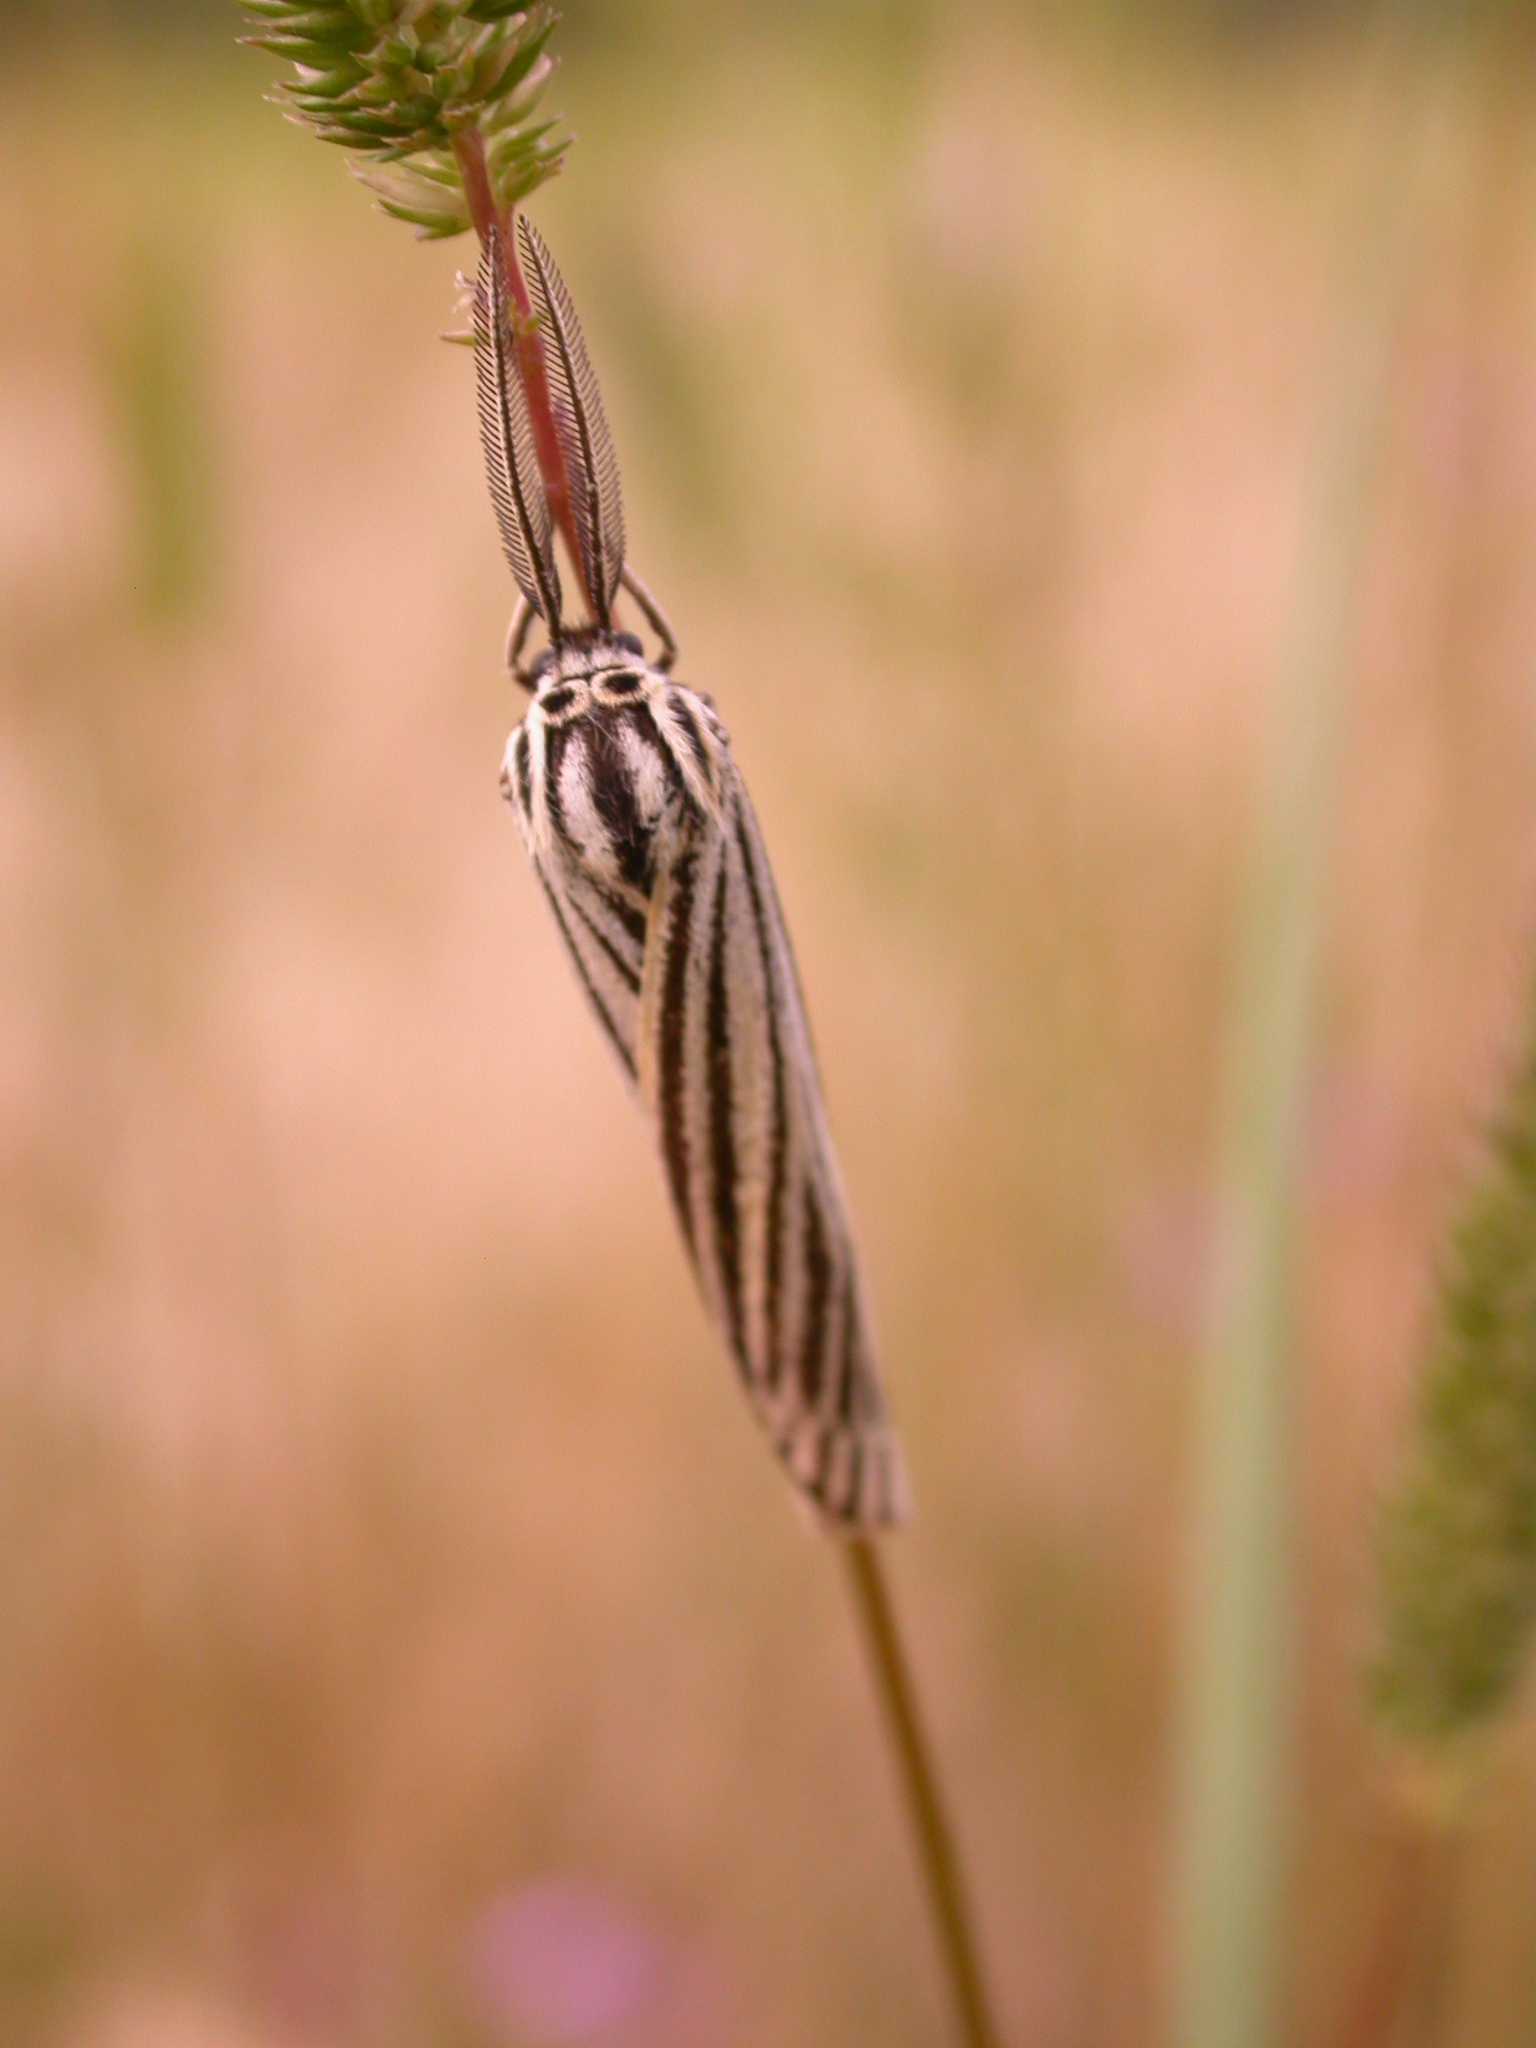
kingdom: Animalia
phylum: Arthropoda
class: Insecta
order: Lepidoptera
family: Erebidae
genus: Coscinia
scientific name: Coscinia Spiris striata
